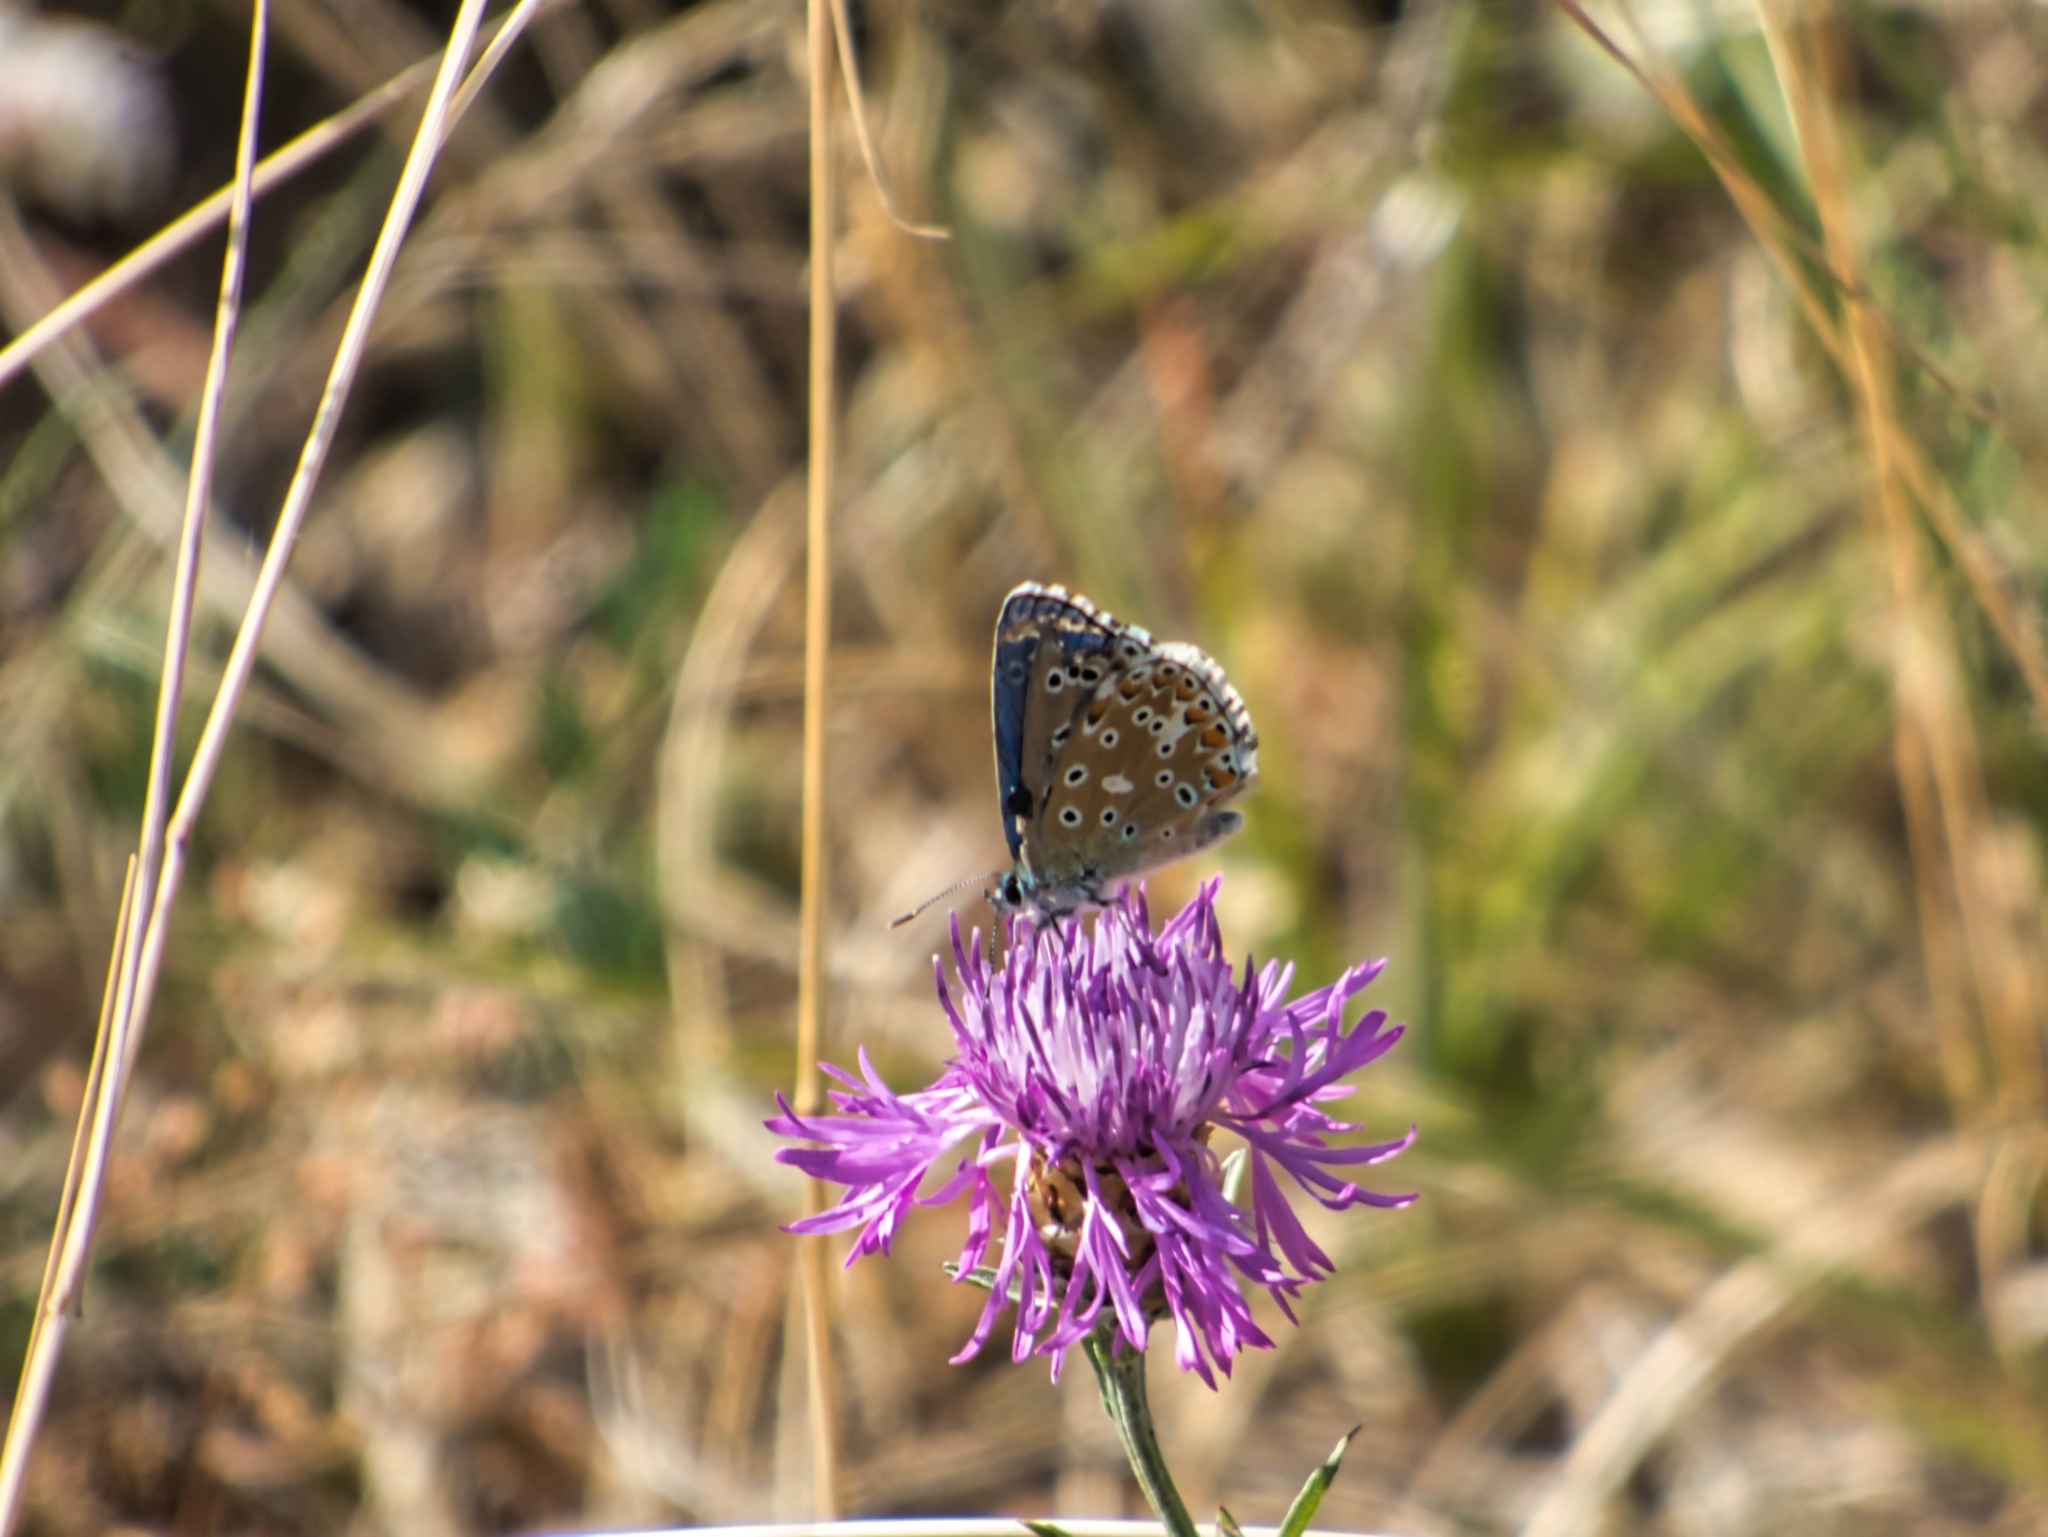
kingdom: Animalia
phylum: Arthropoda
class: Insecta
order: Lepidoptera
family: Lycaenidae
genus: Lysandra
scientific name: Lysandra bellargus
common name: Adonis blue
